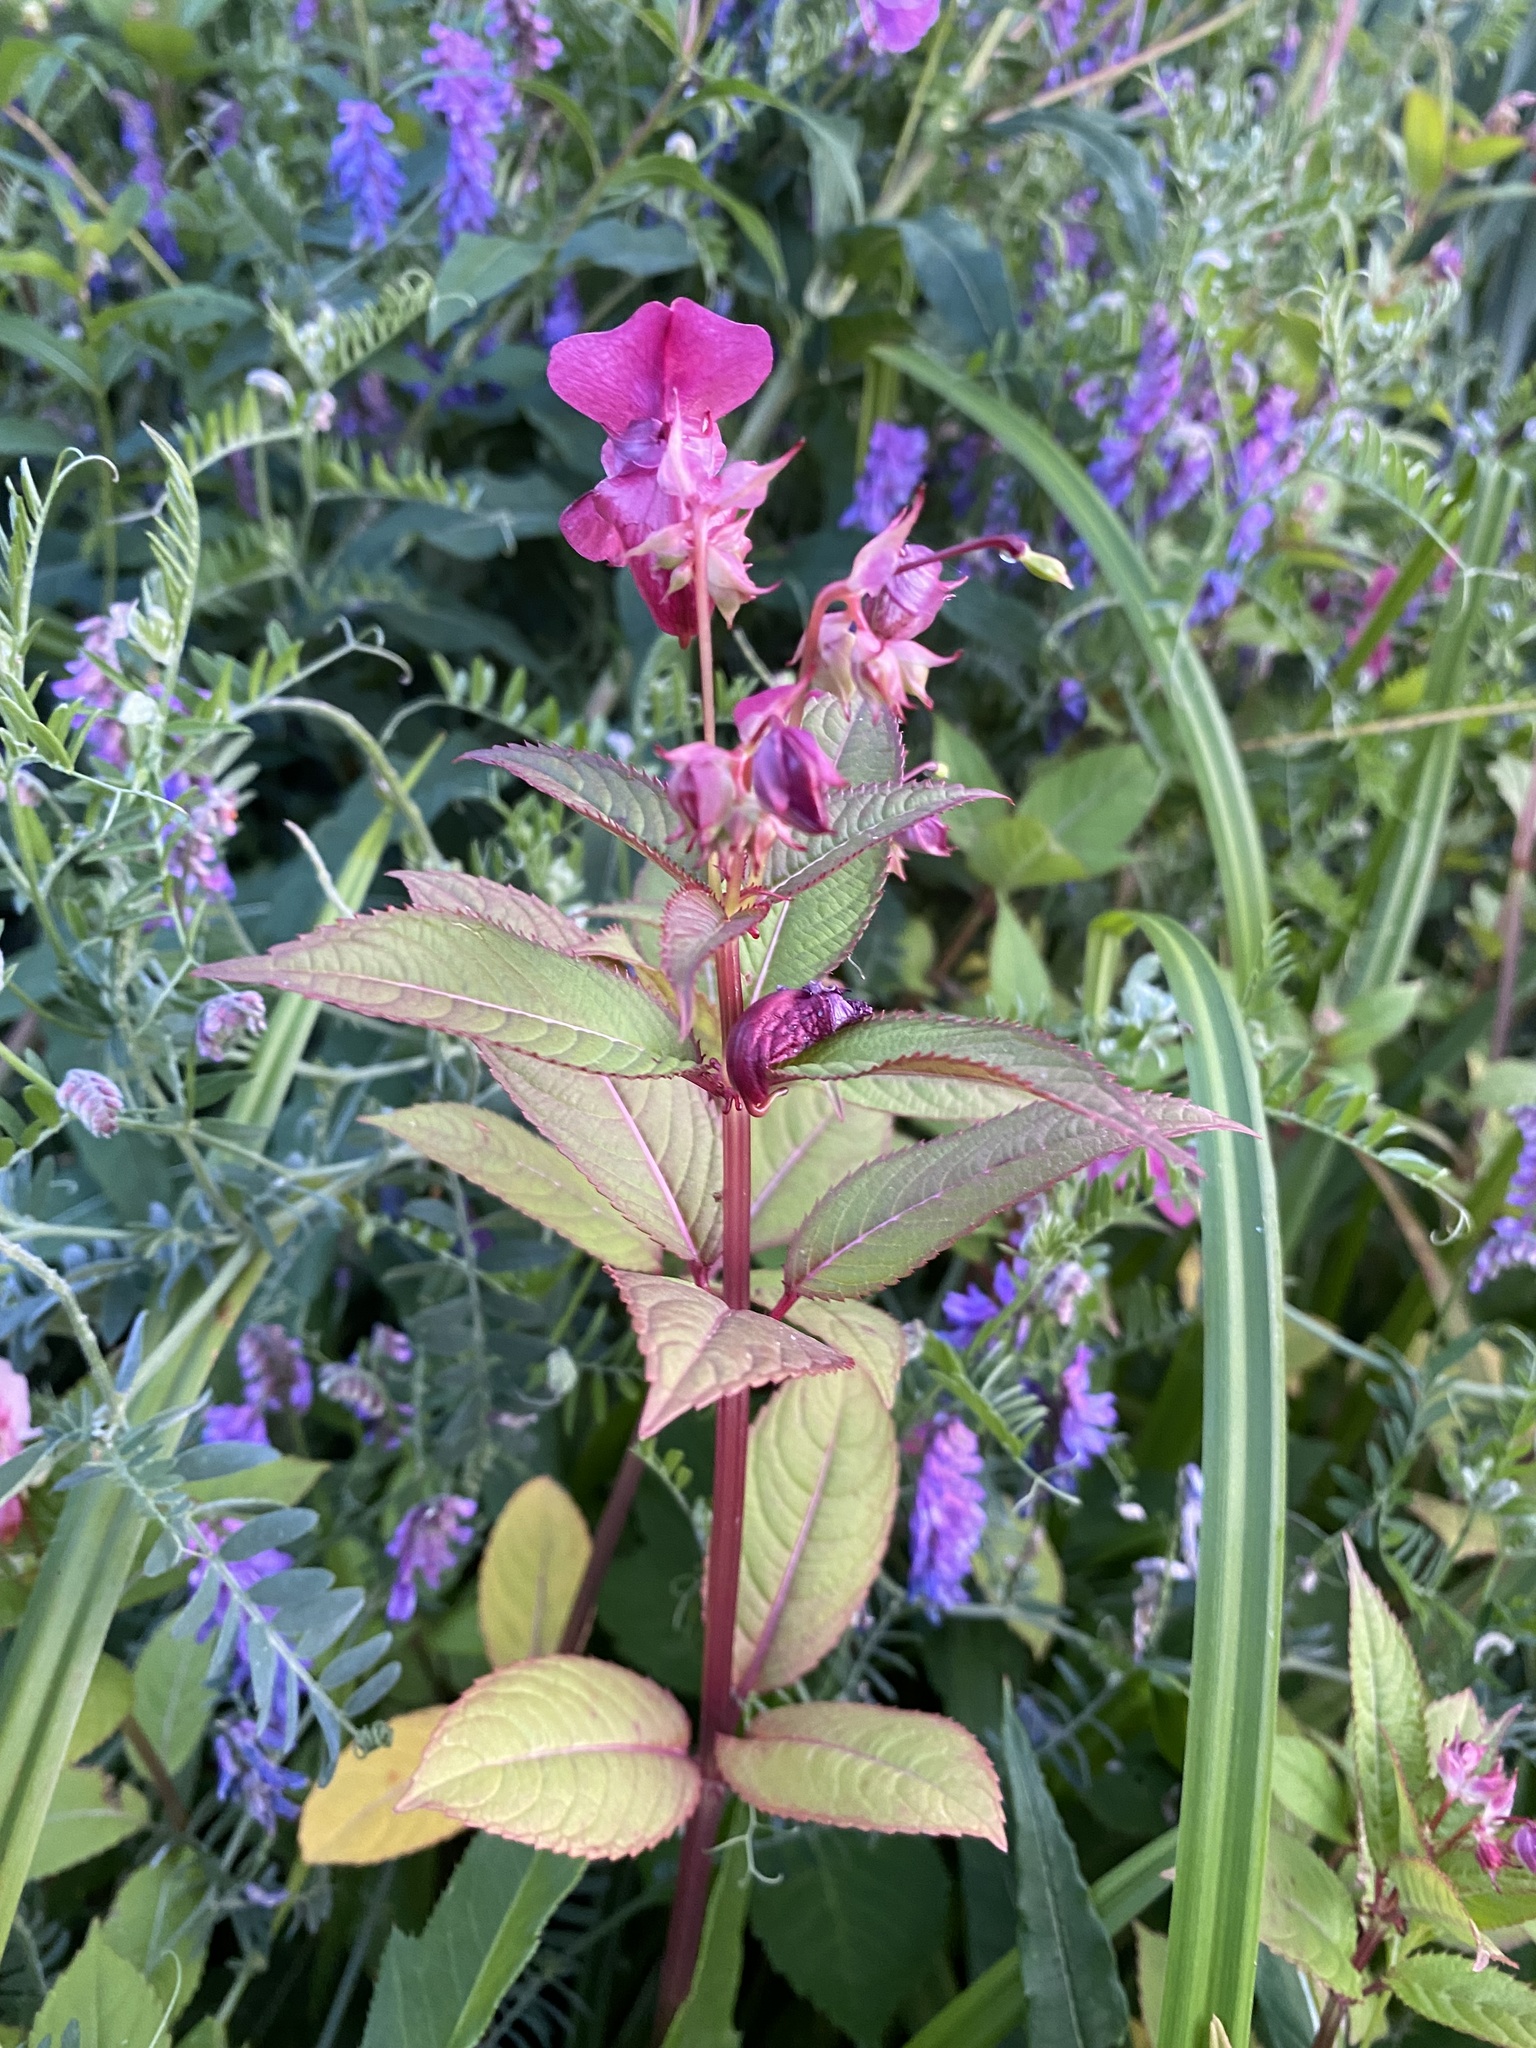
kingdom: Plantae
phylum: Tracheophyta
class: Magnoliopsida
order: Ericales
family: Balsaminaceae
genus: Impatiens
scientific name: Impatiens glandulifera
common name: Himalayan balsam
